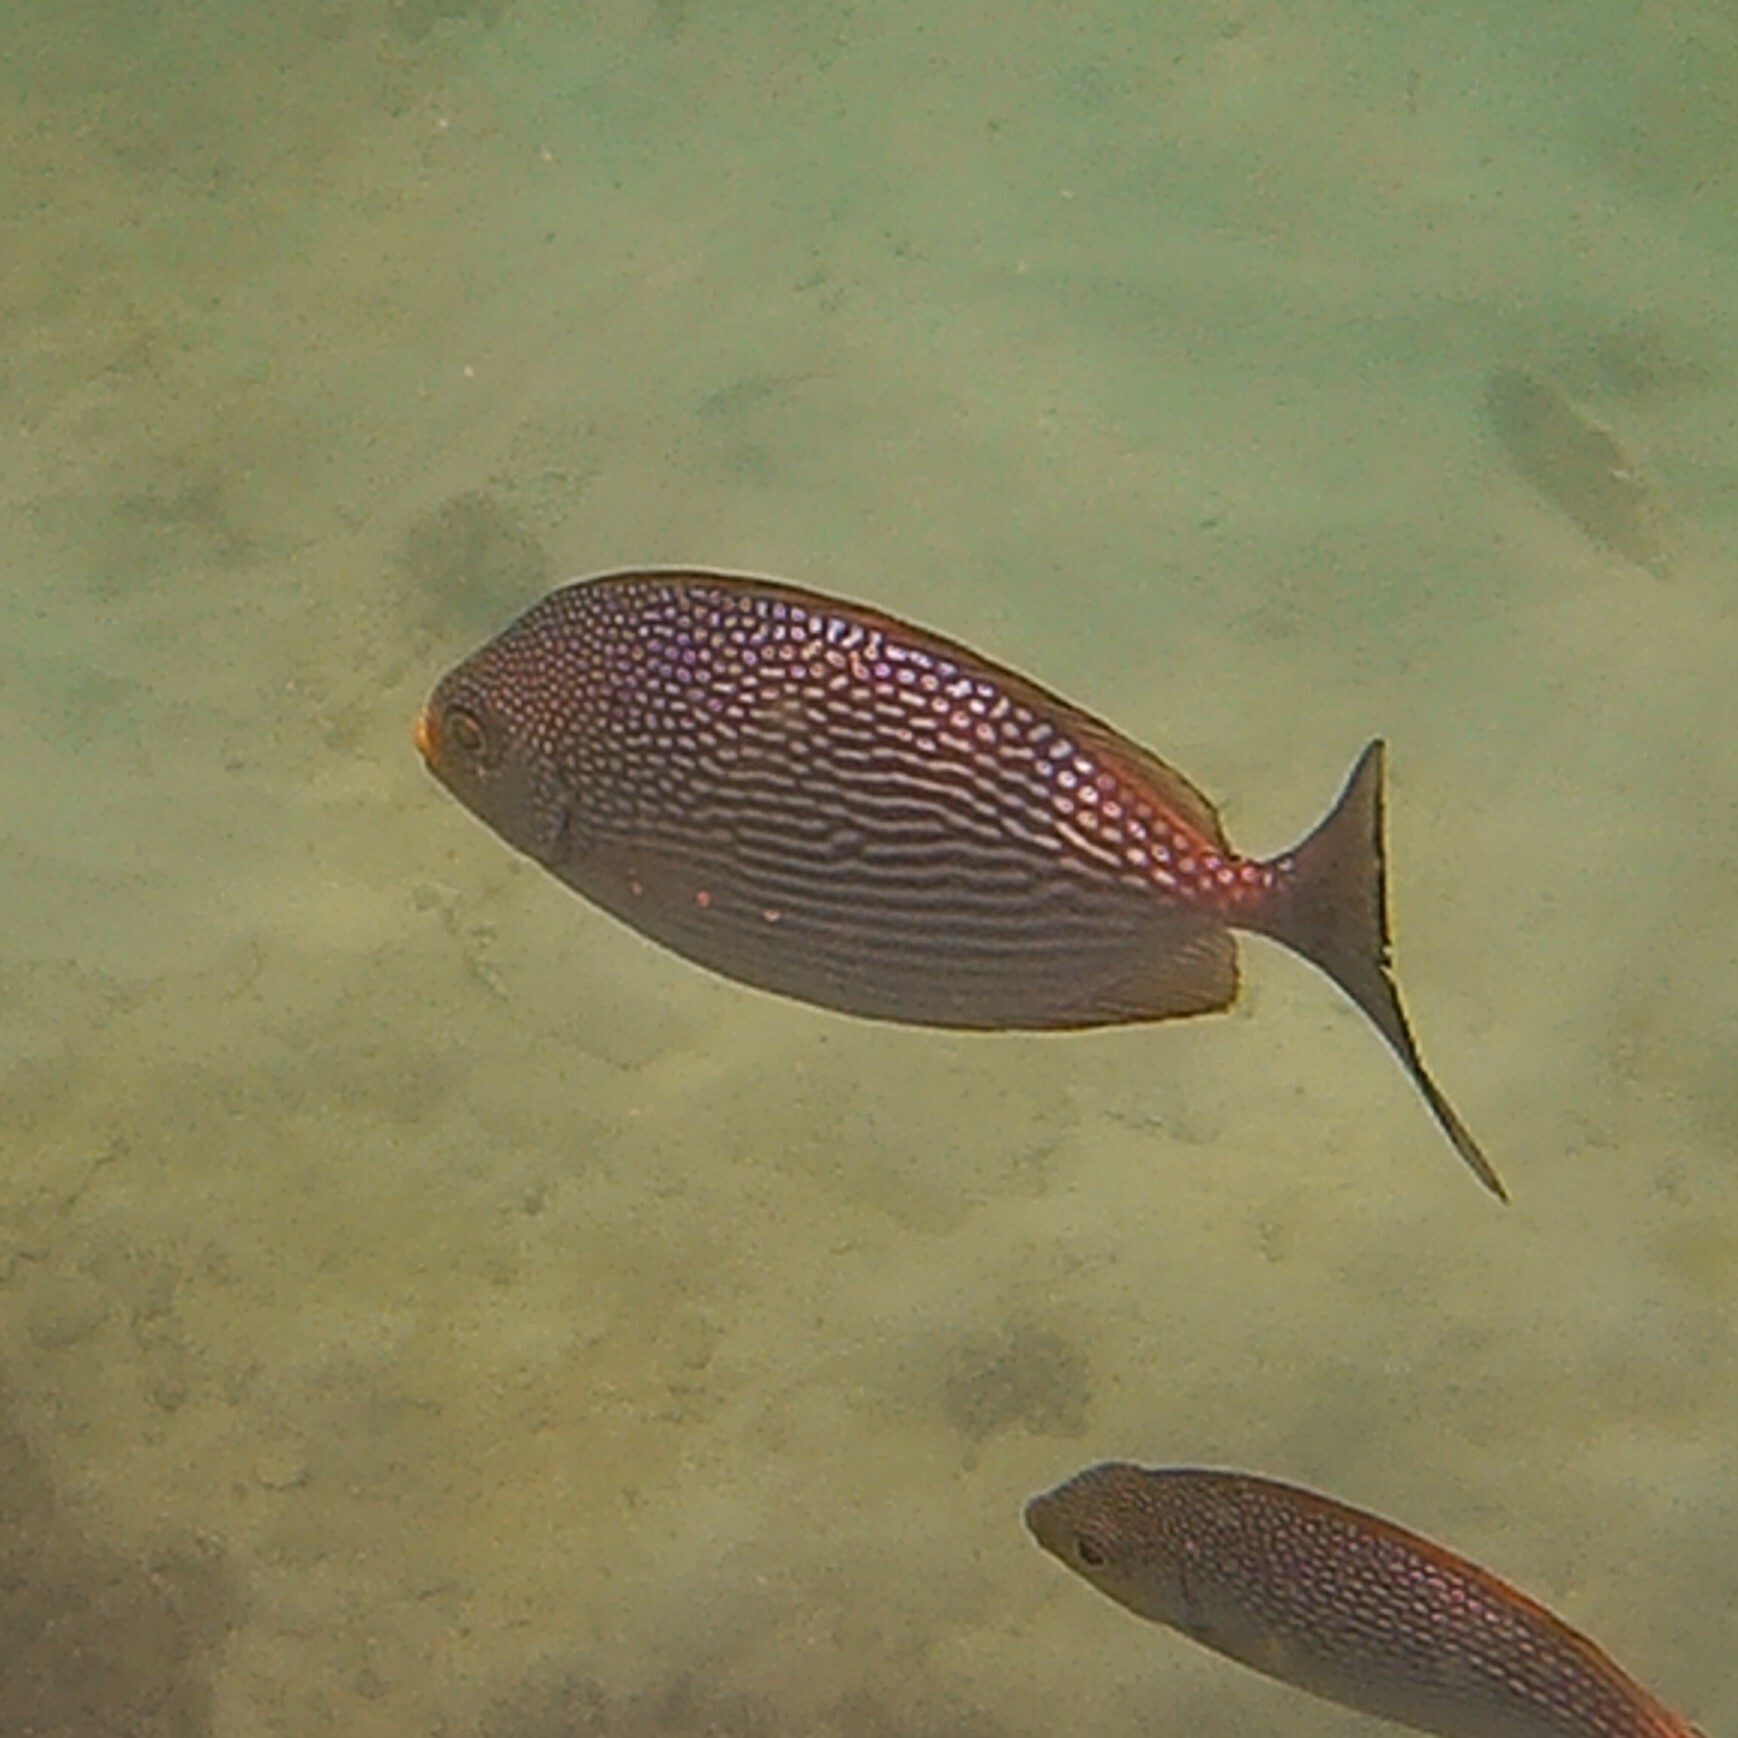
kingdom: Animalia
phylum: Chordata
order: Perciformes
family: Siganidae
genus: Siganus
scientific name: Siganus javus
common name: Java rabbitfish
